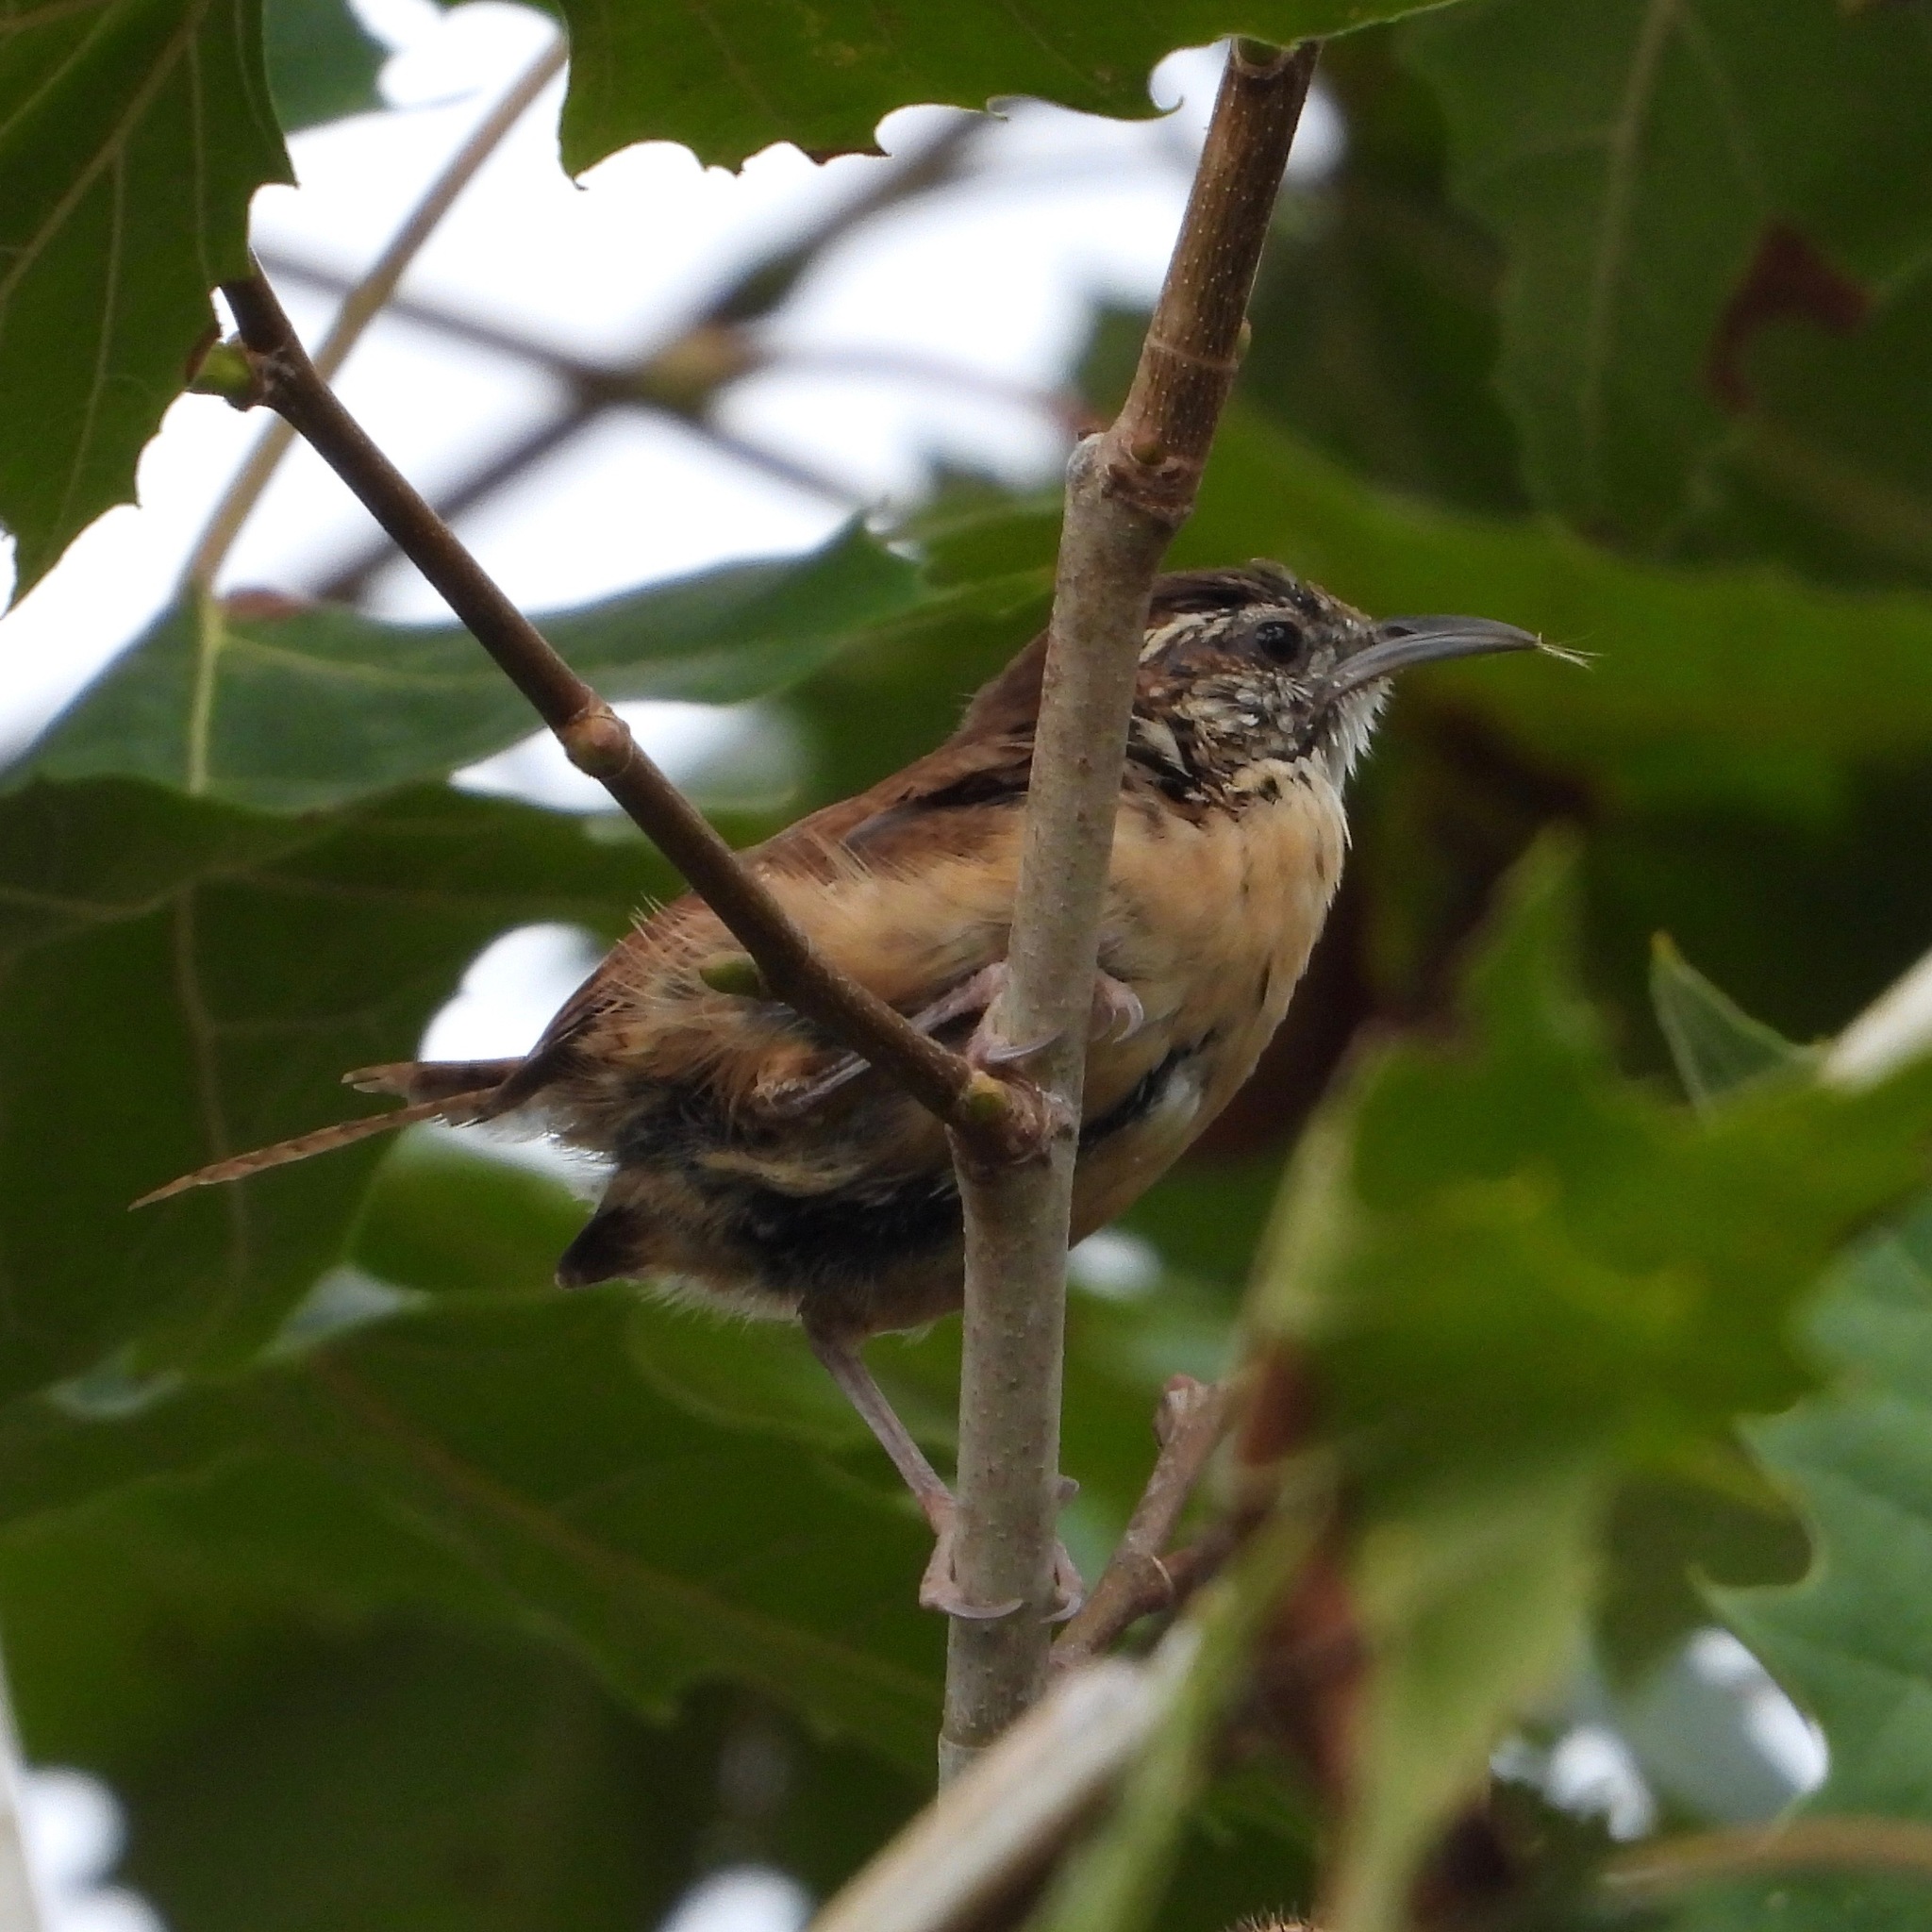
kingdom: Animalia
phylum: Chordata
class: Aves
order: Passeriformes
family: Troglodytidae
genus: Thryothorus
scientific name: Thryothorus ludovicianus
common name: Carolina wren
